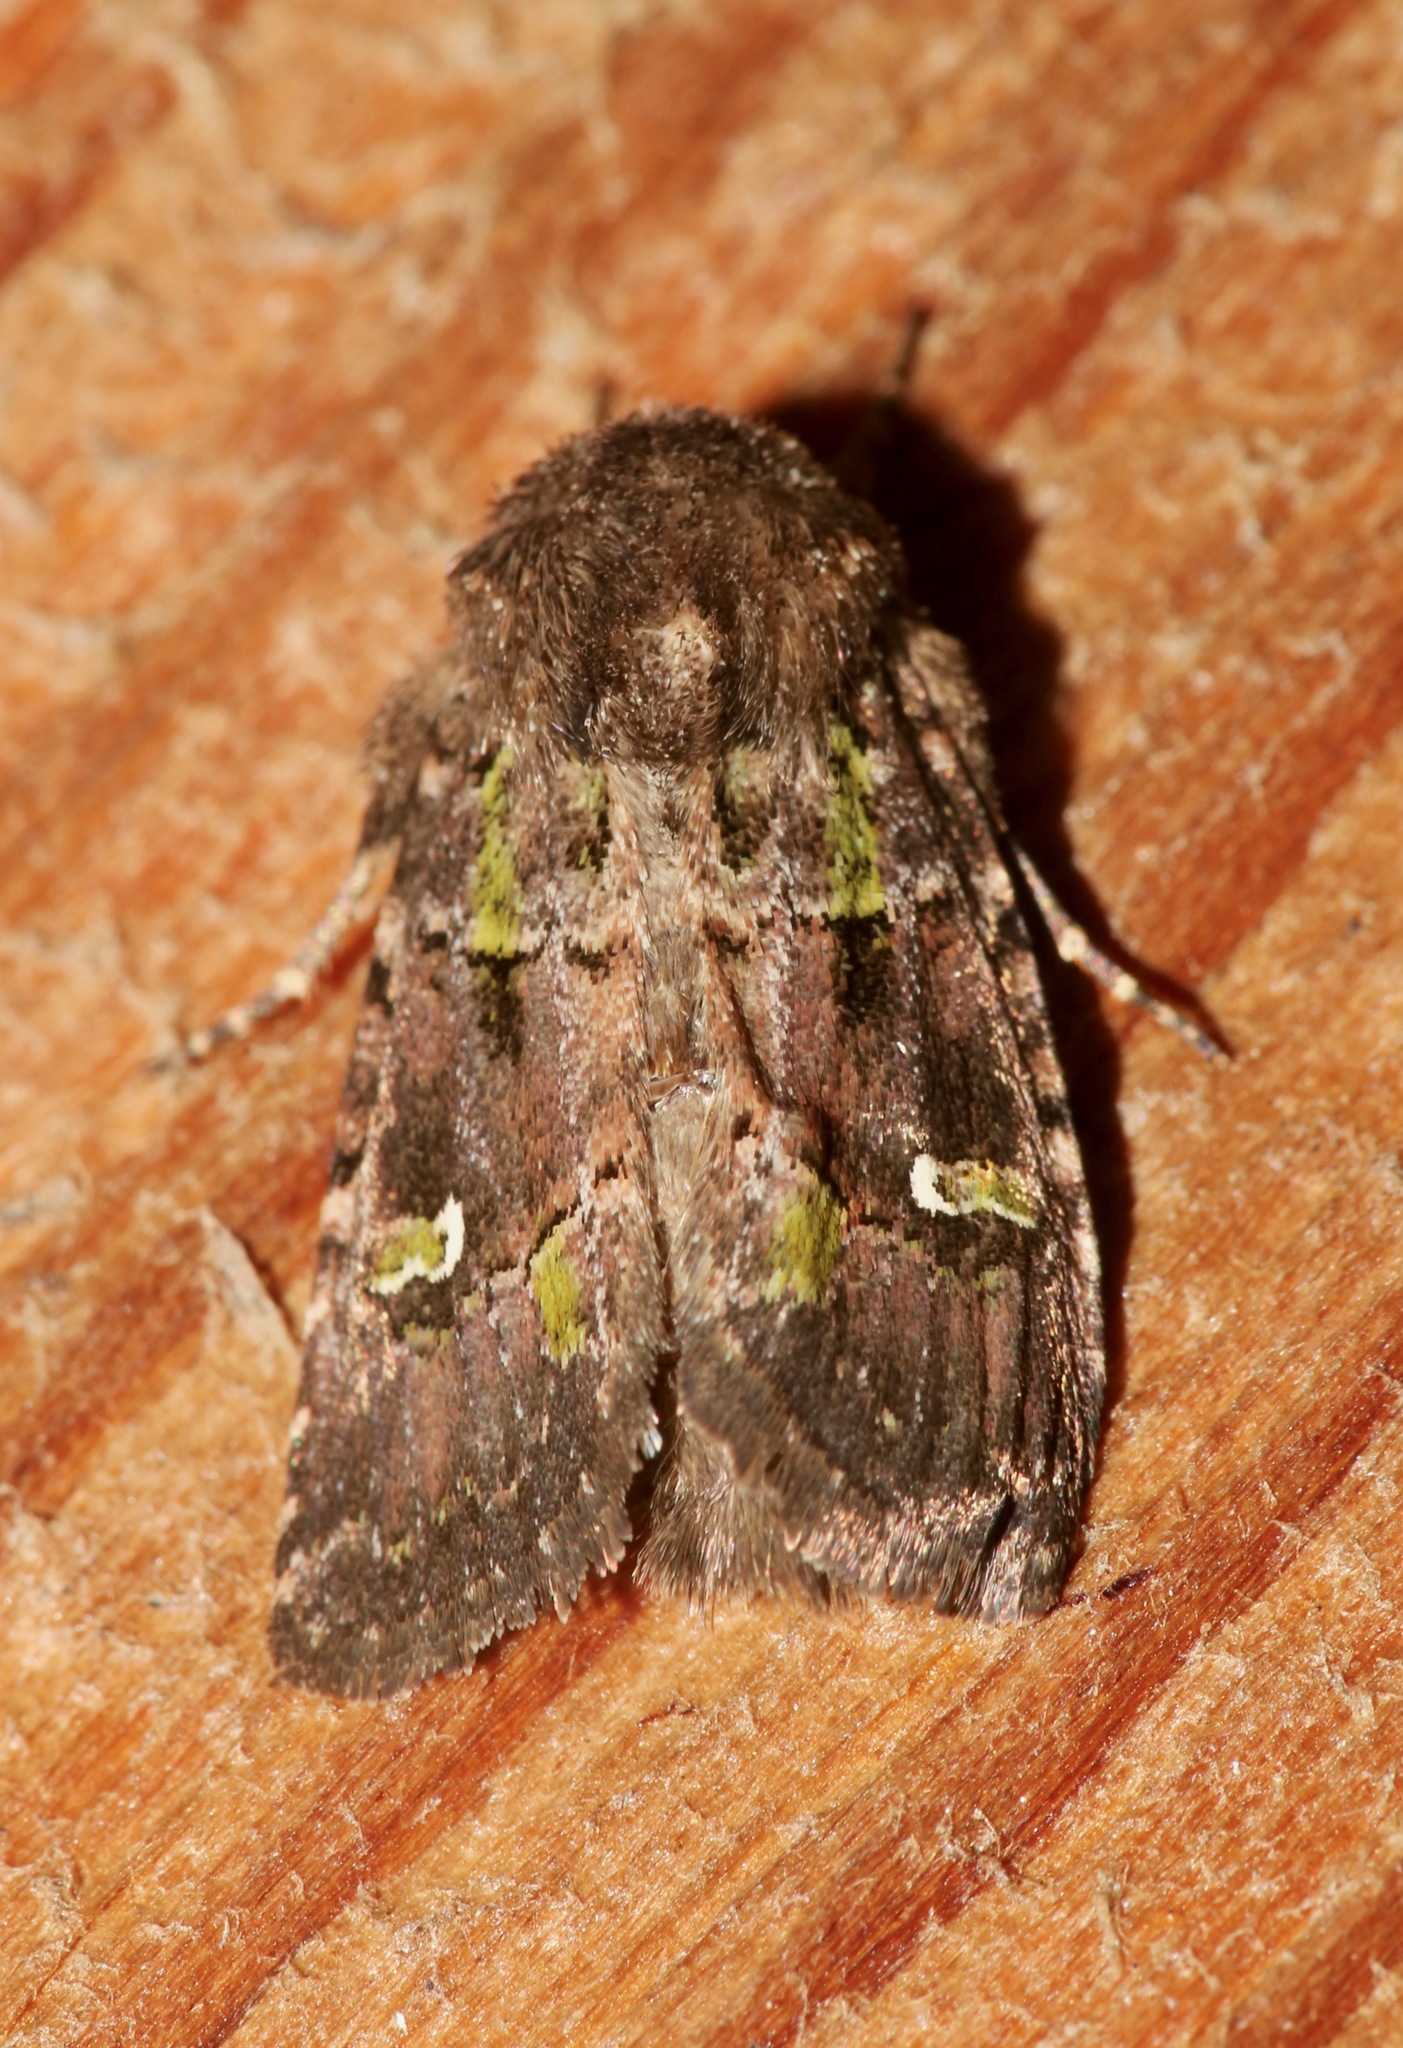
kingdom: Animalia
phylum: Arthropoda
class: Insecta
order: Lepidoptera
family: Noctuidae
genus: Lacinipolia
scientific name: Lacinipolia renigera
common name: Kidney-spotted minor
